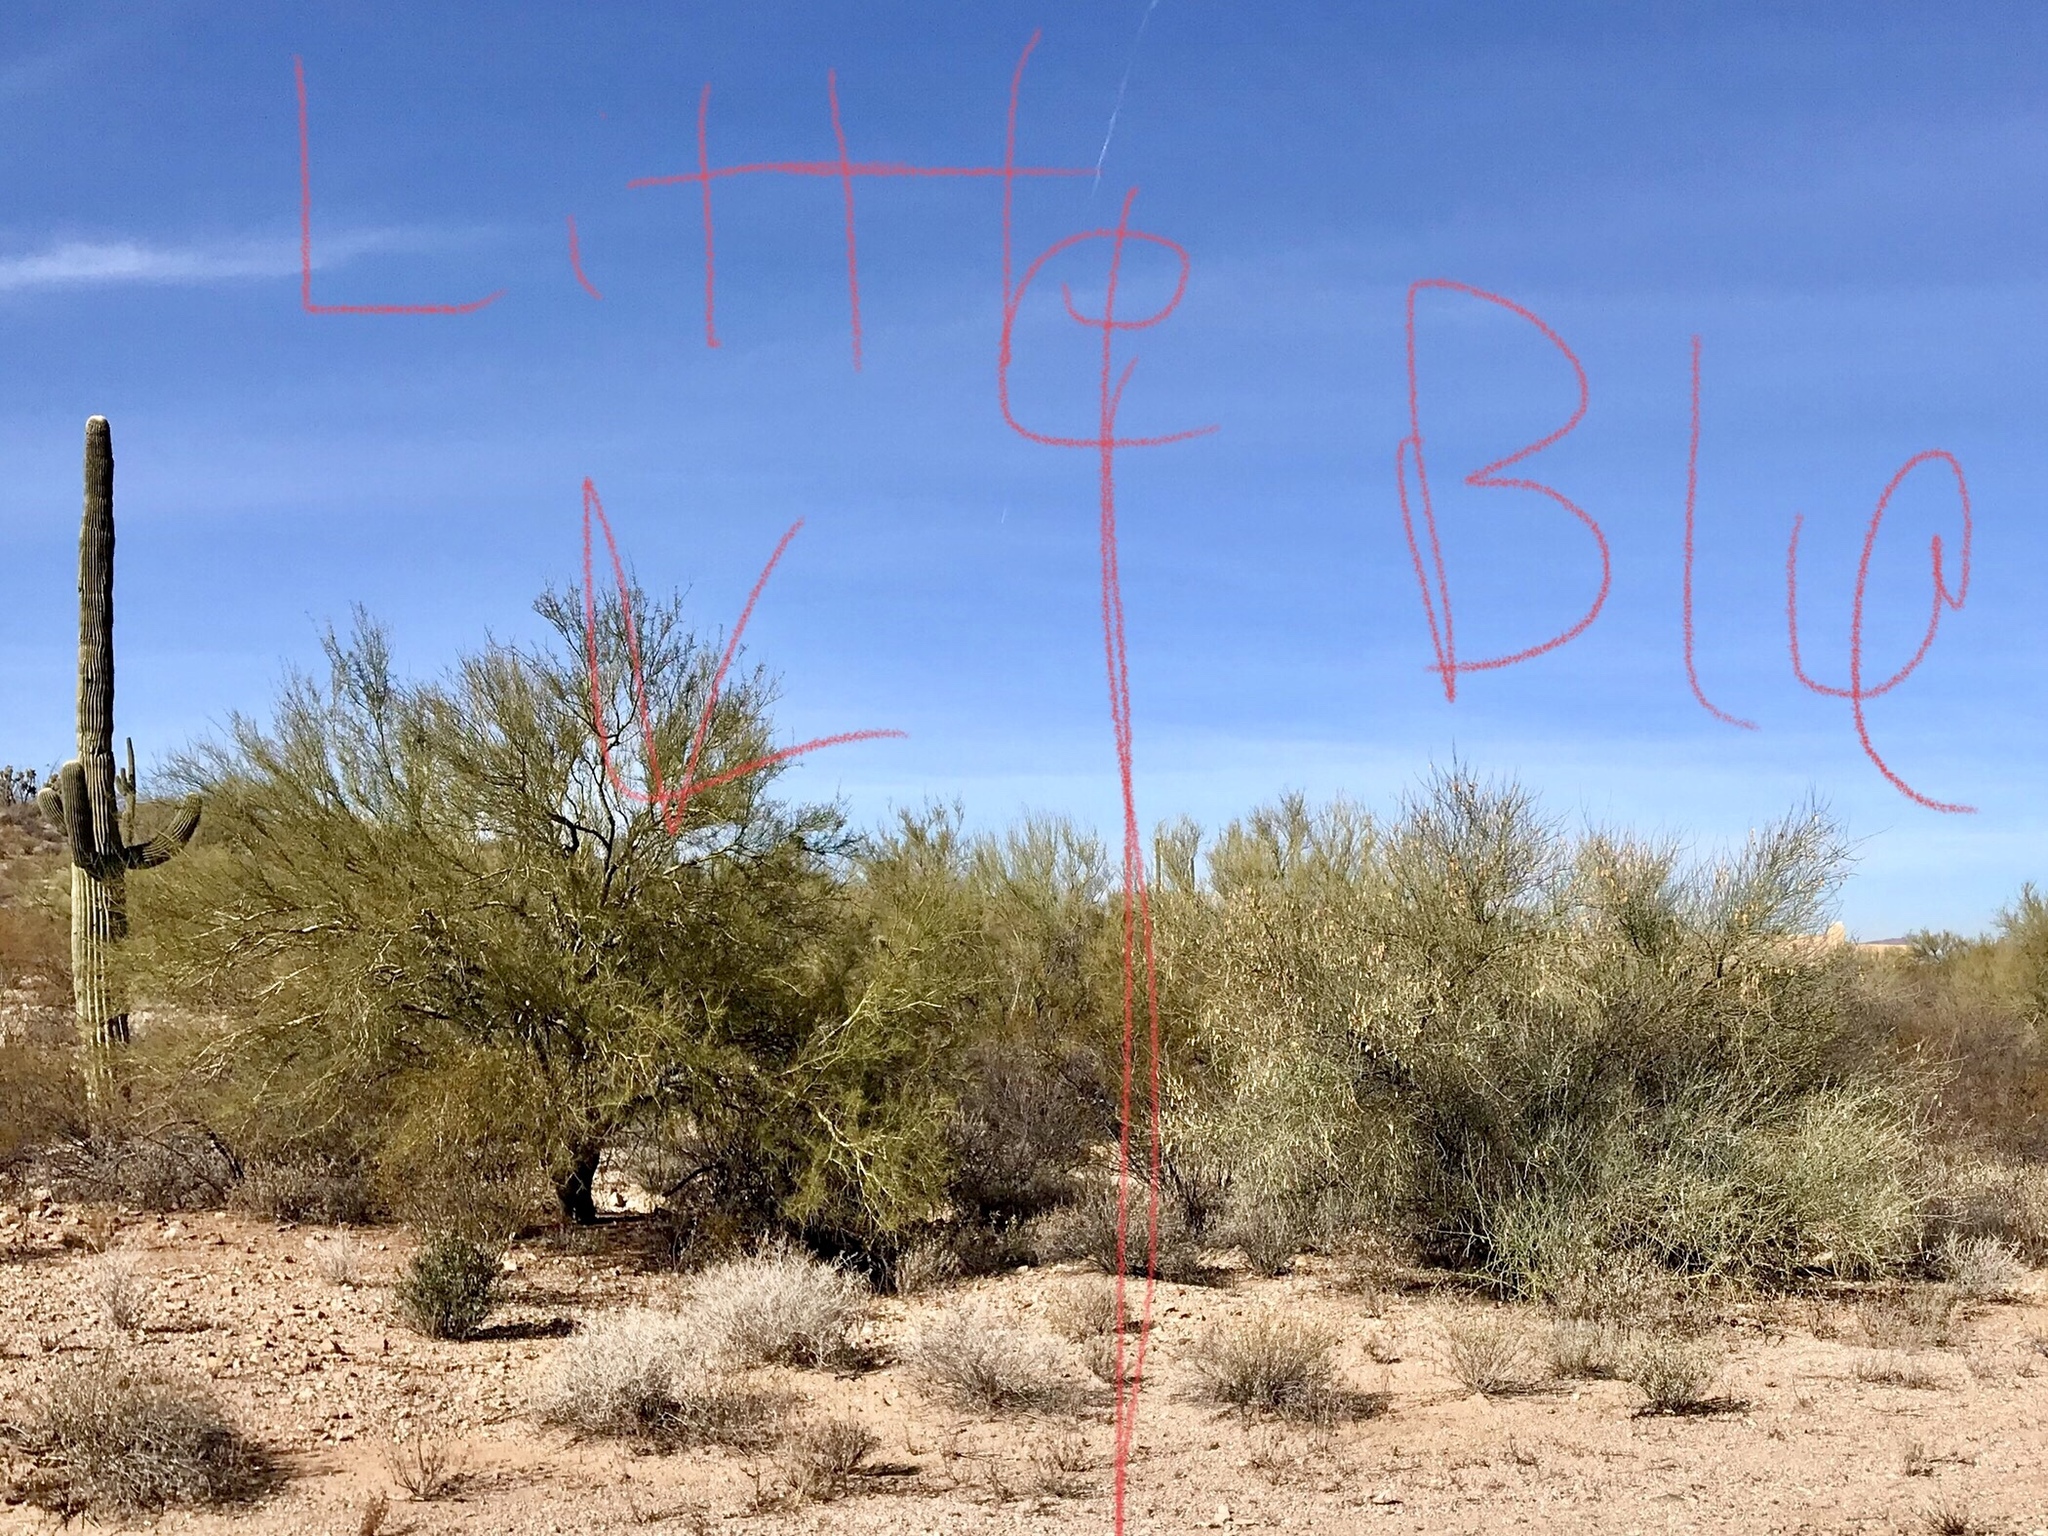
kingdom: Plantae
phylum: Tracheophyta
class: Magnoliopsida
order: Fabales
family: Fabaceae
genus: Parkinsonia
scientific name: Parkinsonia florida
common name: Blue paloverde
